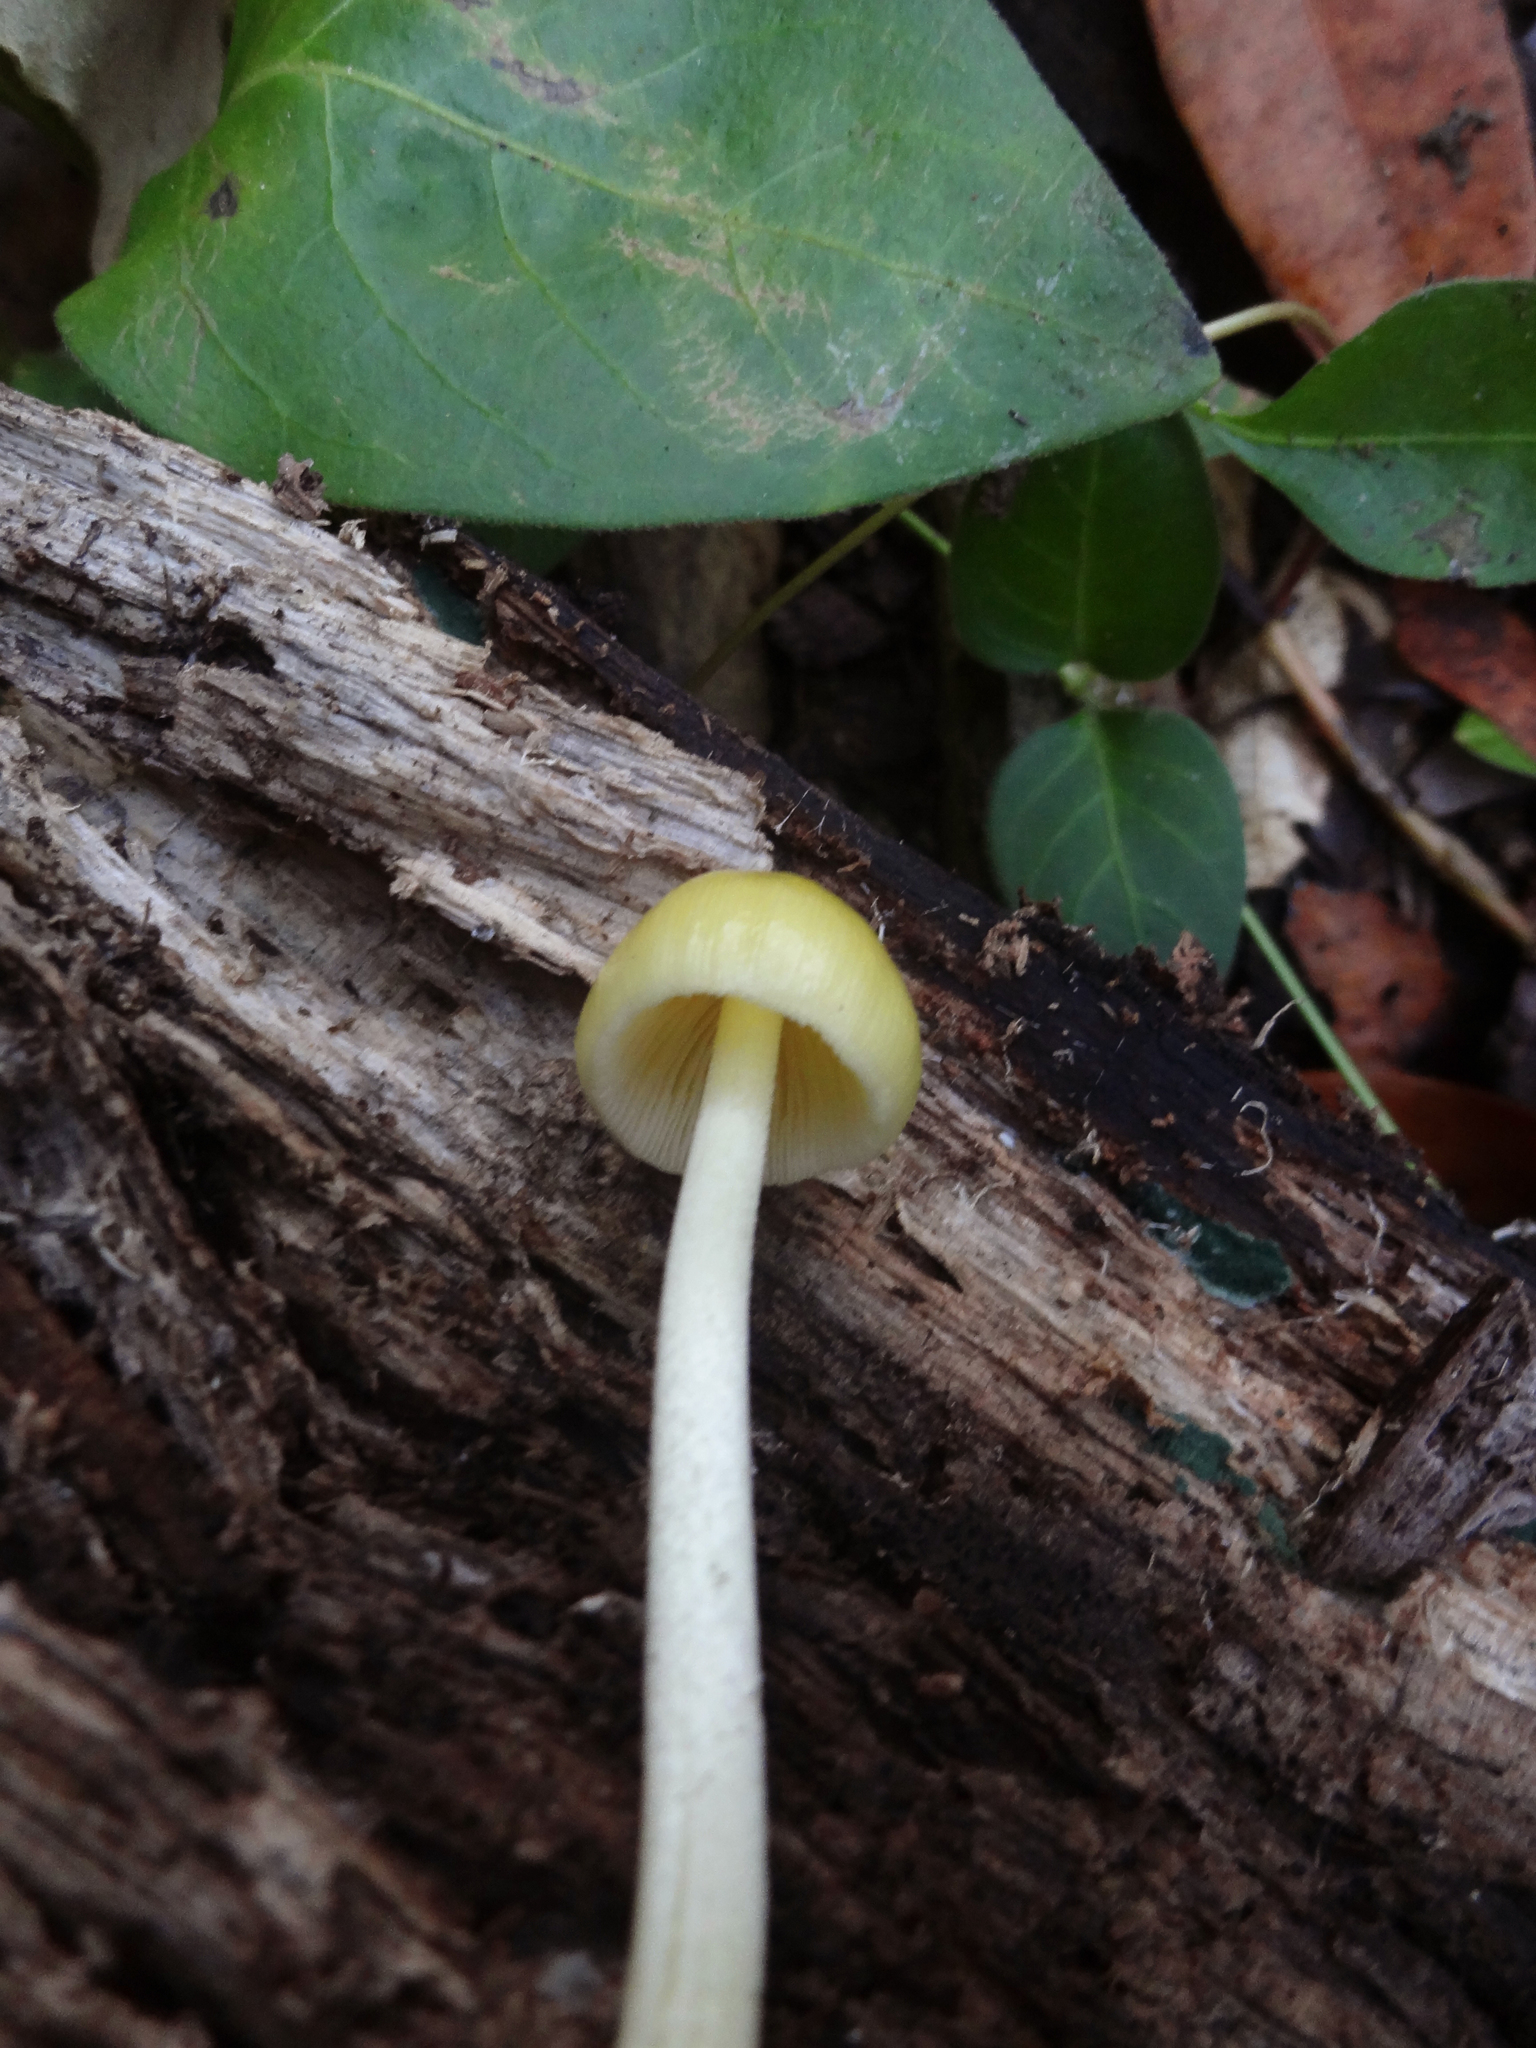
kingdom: Fungi
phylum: Basidiomycota
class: Agaricomycetes
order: Agaricales
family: Bolbitiaceae
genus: Bolbitius
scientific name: Bolbitius titubans
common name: Yellow fieldcap
